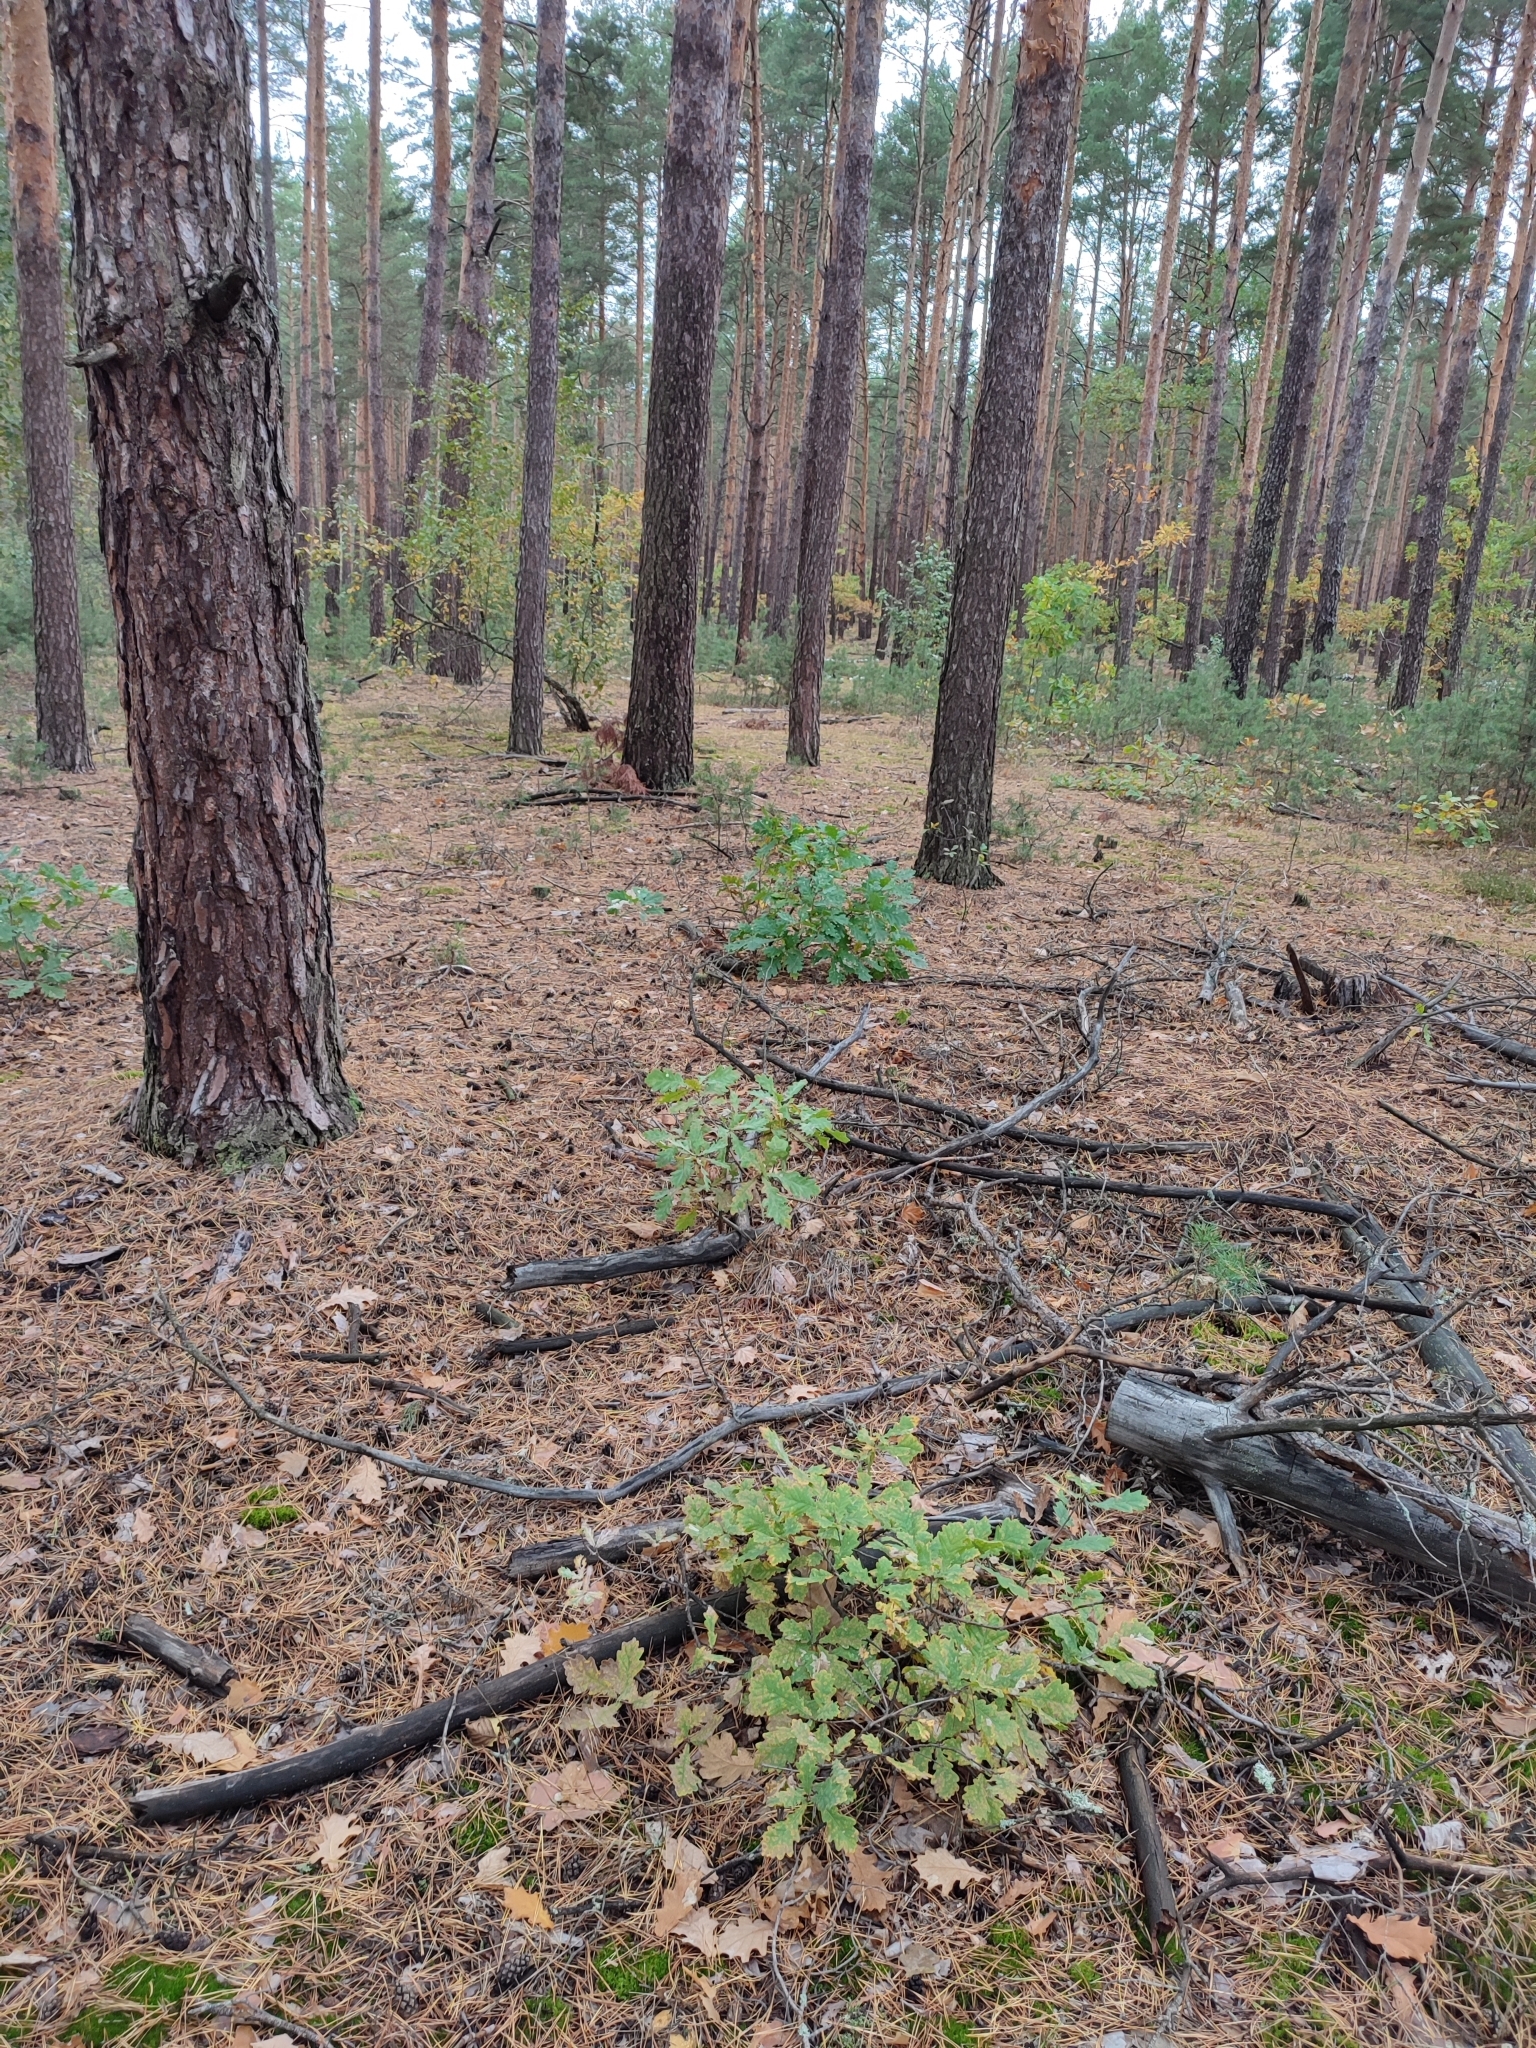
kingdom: Plantae
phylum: Tracheophyta
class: Magnoliopsida
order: Fagales
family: Fagaceae
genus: Quercus
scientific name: Quercus robur
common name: Pedunculate oak
